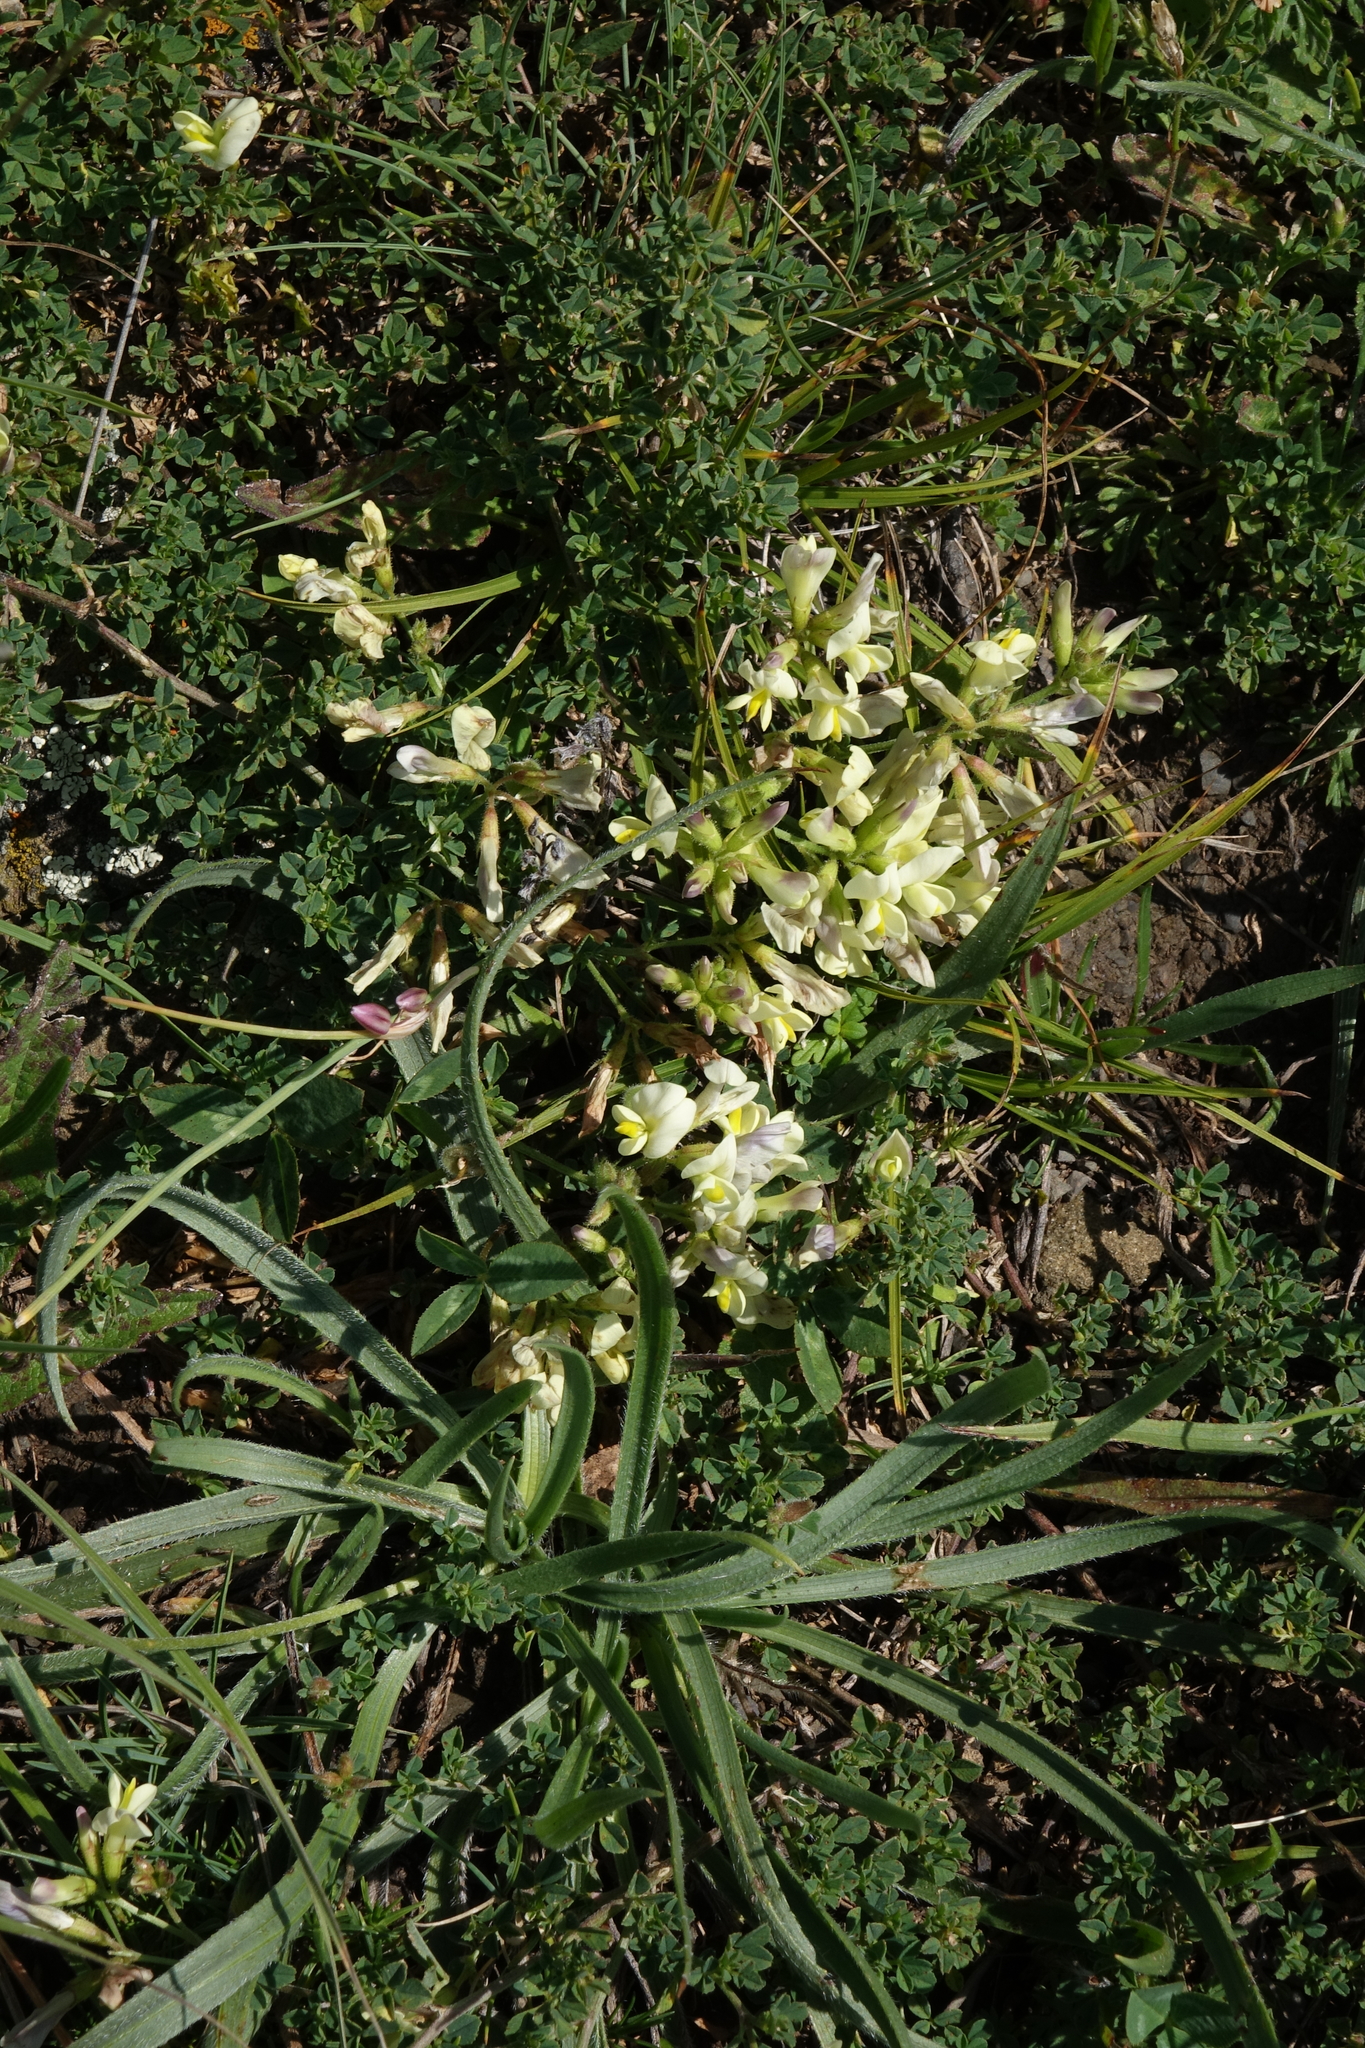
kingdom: Plantae
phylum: Tracheophyta
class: Magnoliopsida
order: Fabales
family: Fabaceae
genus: Medicago
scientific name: Medicago
